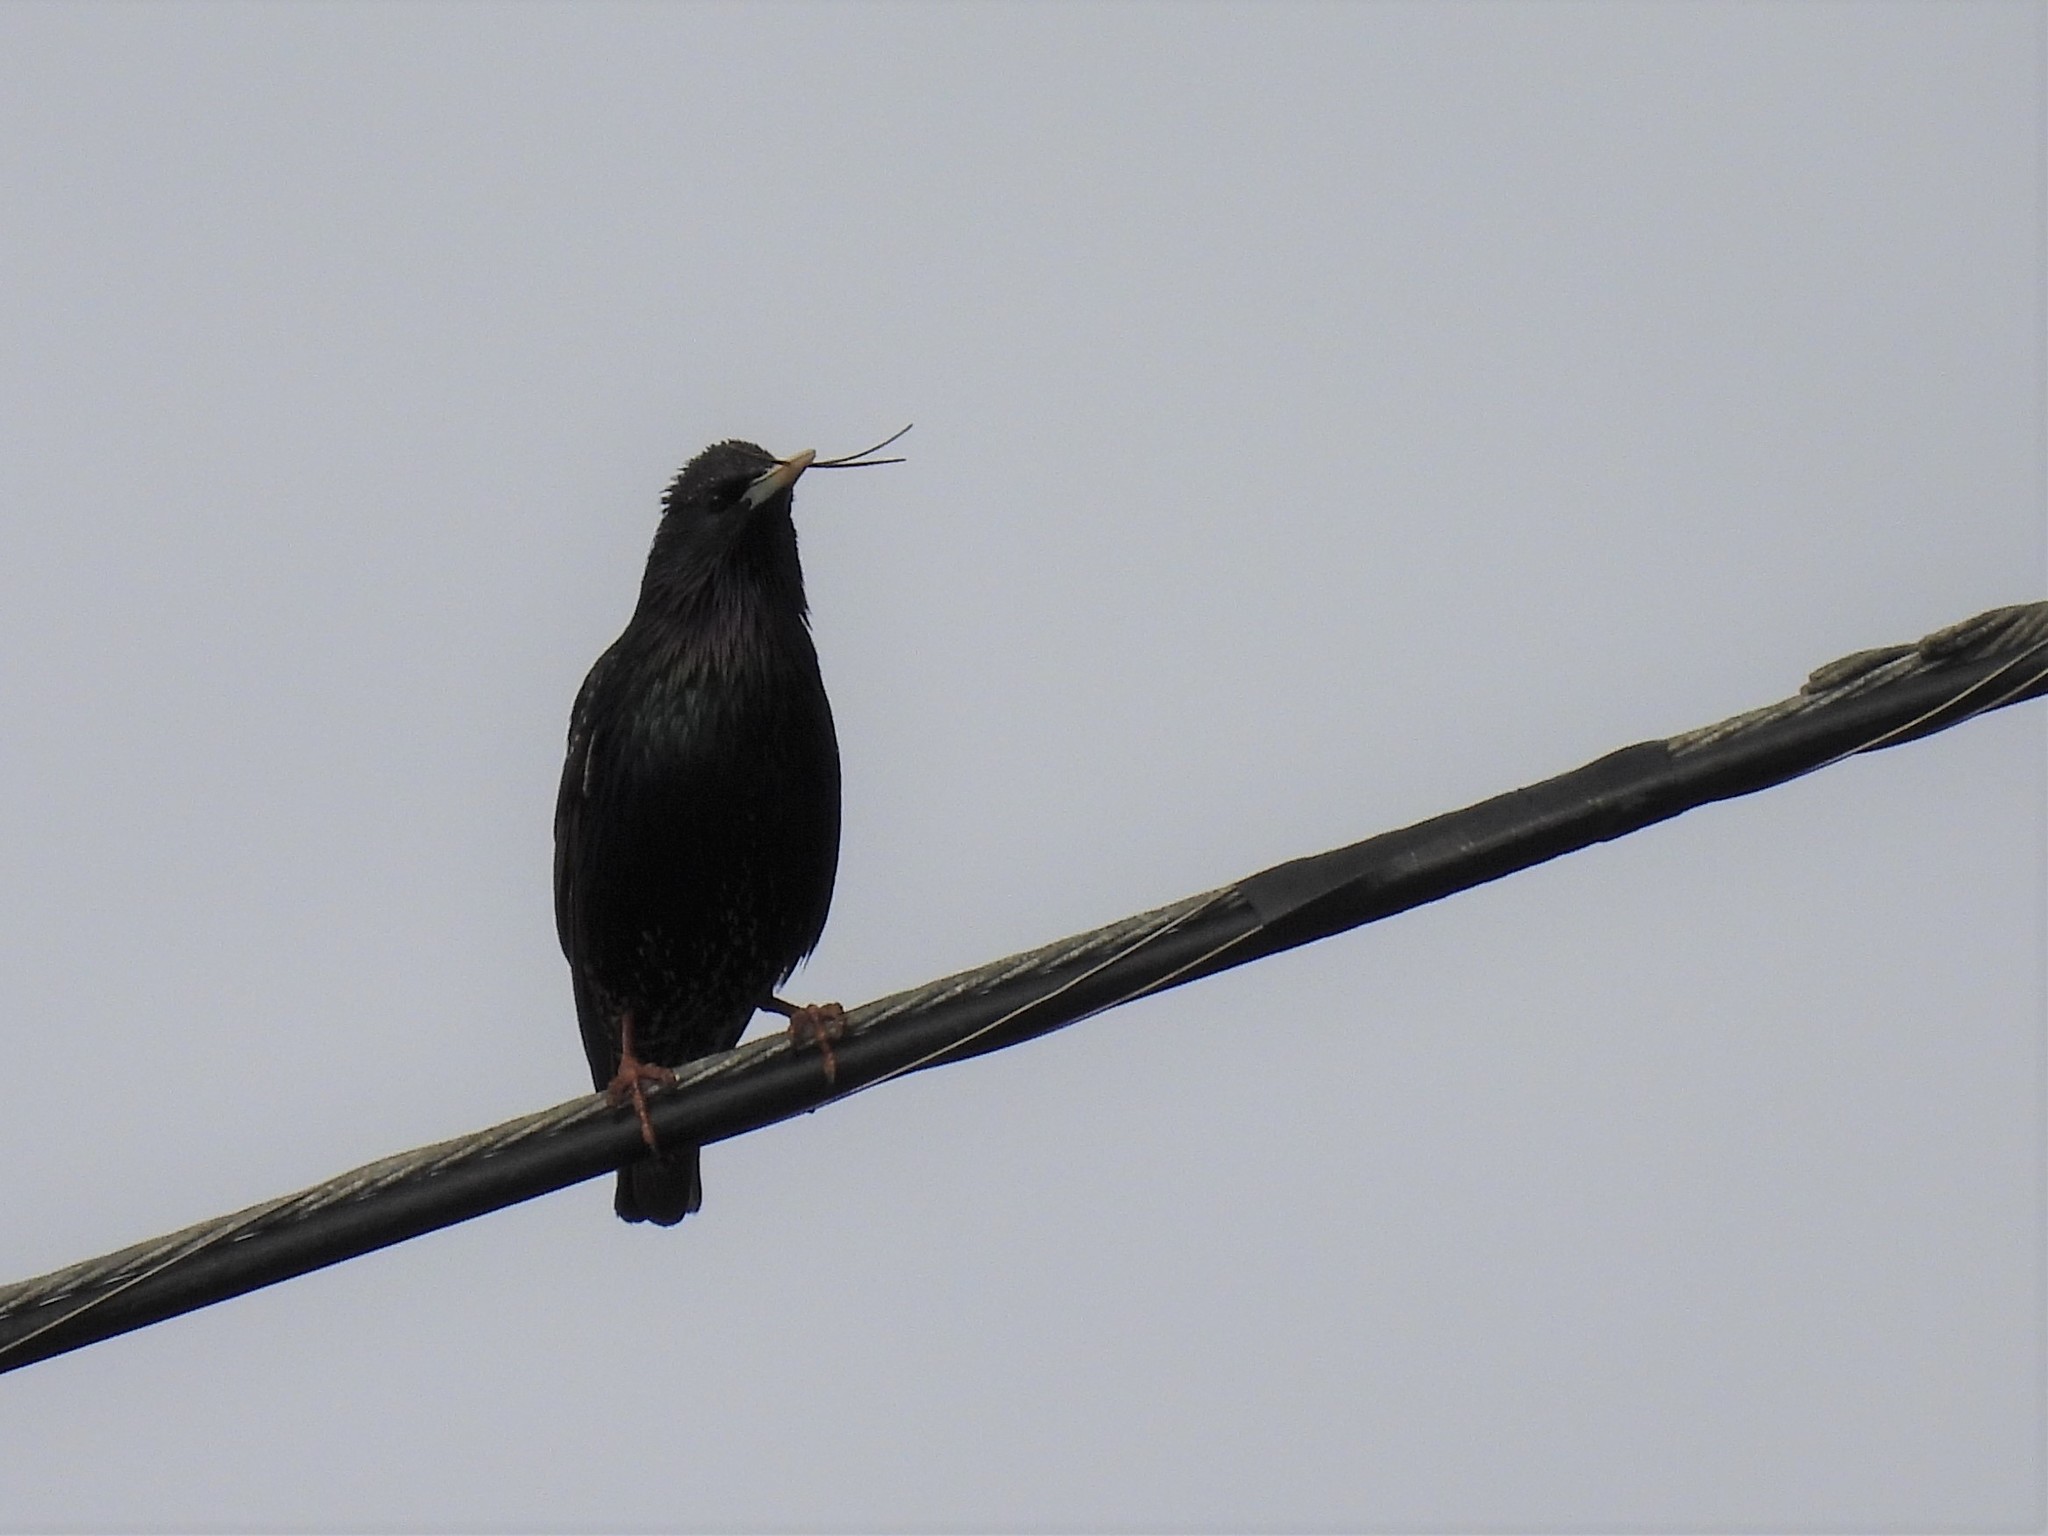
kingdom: Animalia
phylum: Chordata
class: Aves
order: Passeriformes
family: Sturnidae
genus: Sturnus
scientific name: Sturnus vulgaris
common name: Common starling
